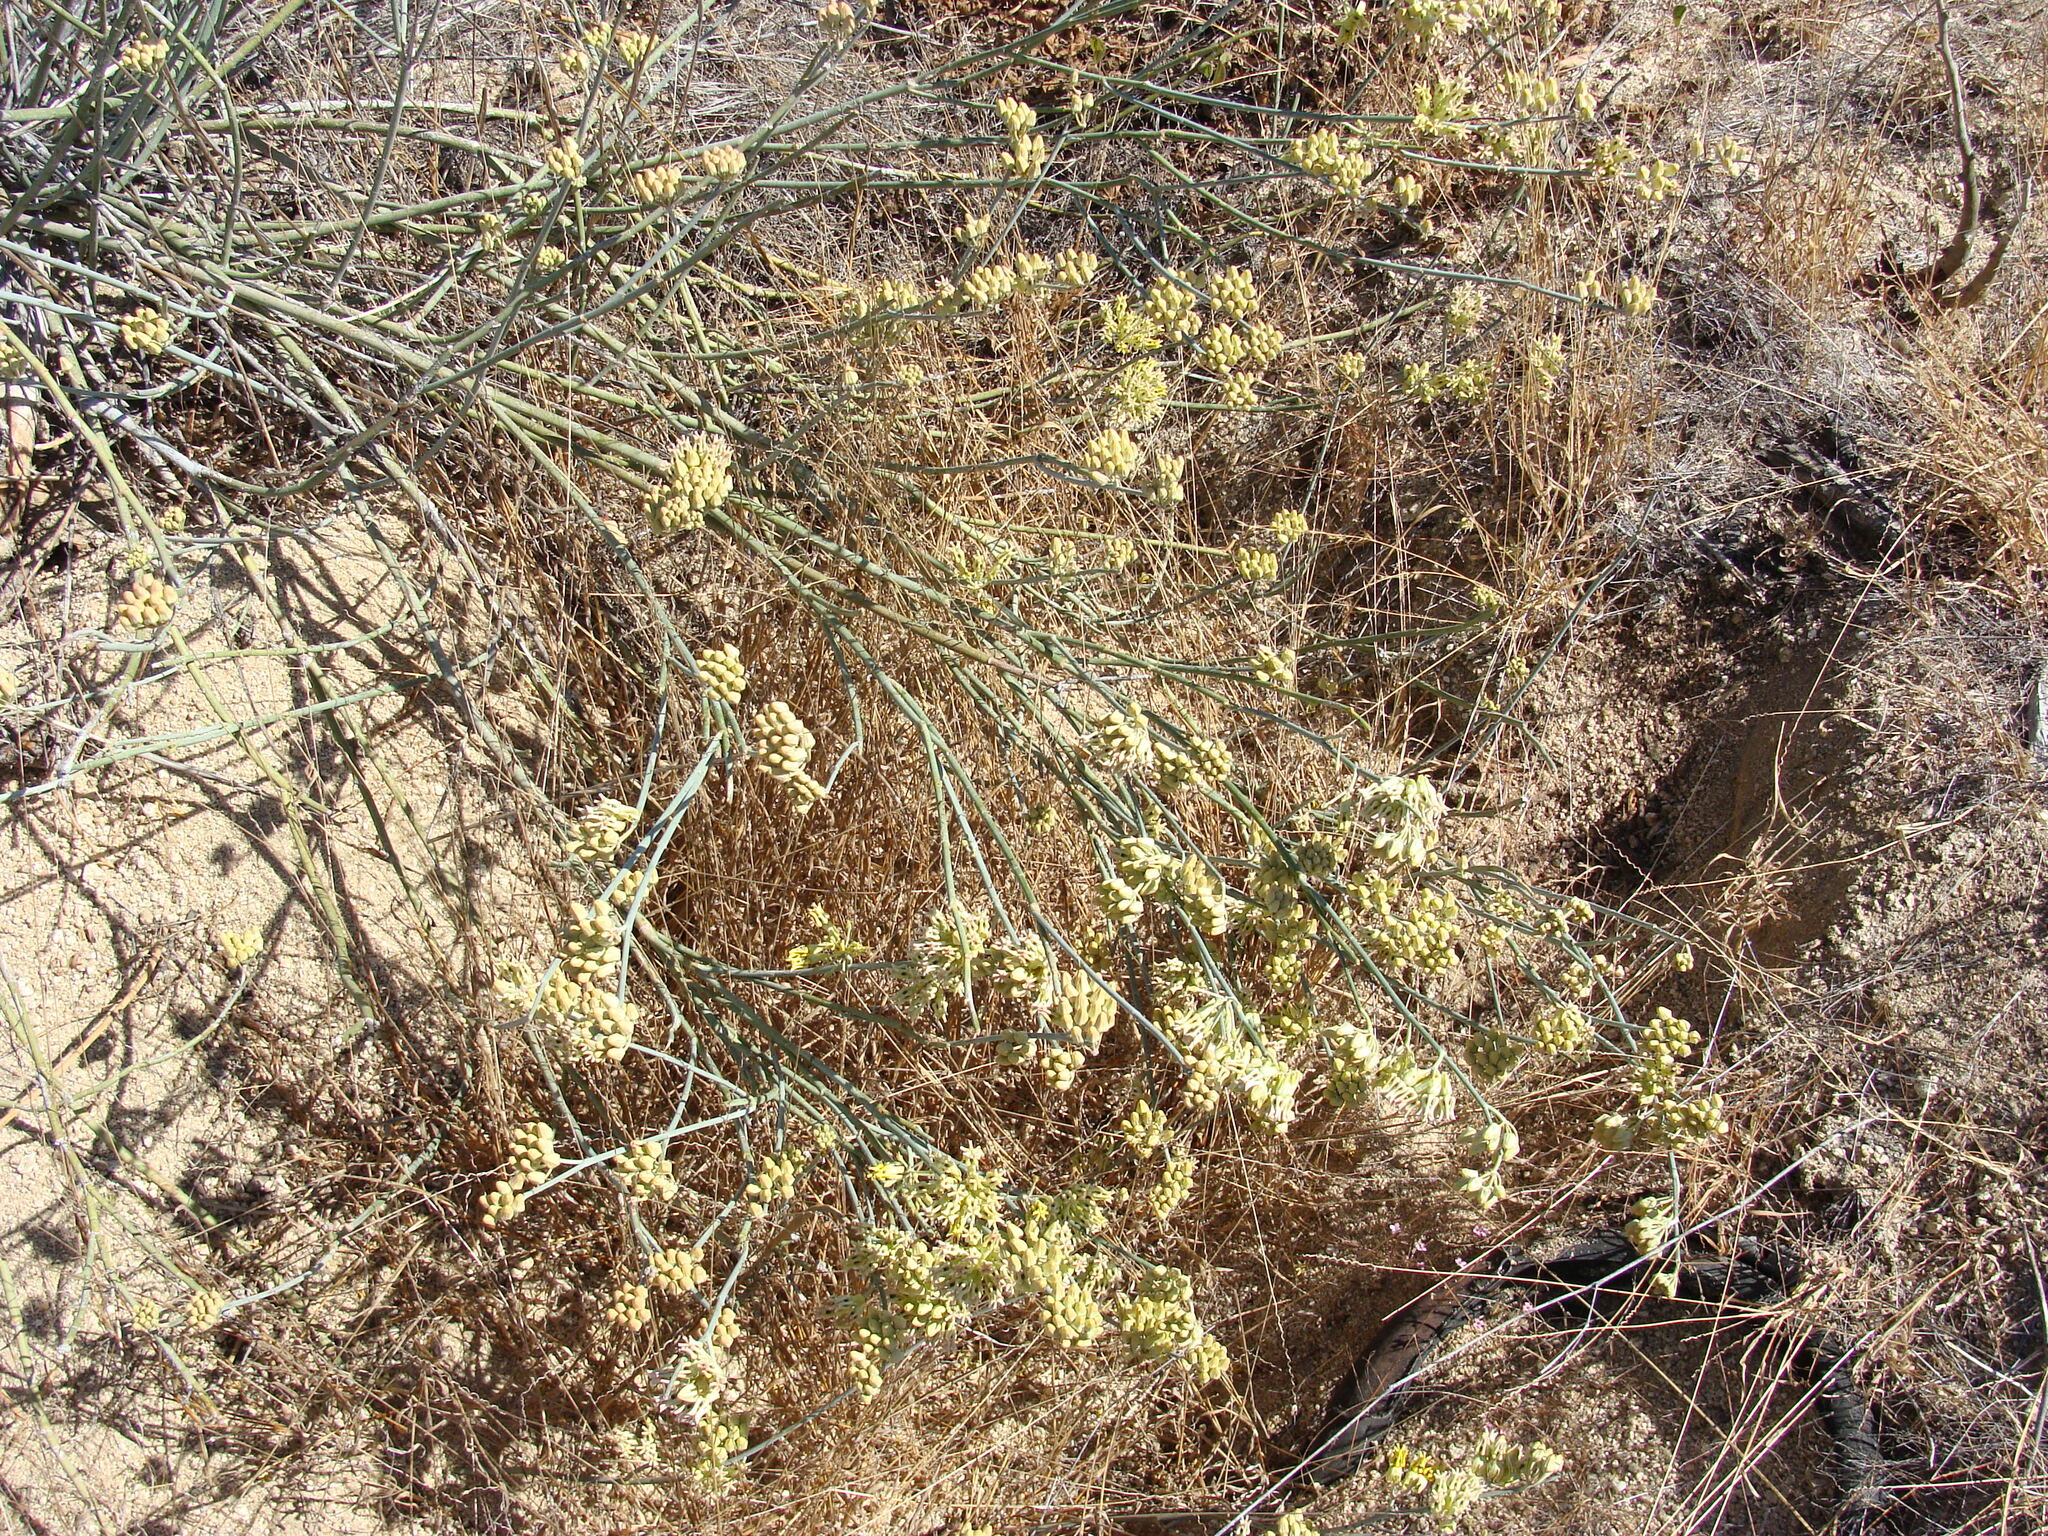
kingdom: Plantae
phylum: Tracheophyta
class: Magnoliopsida
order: Gentianales
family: Apocynaceae
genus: Asclepias
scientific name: Asclepias subulata
